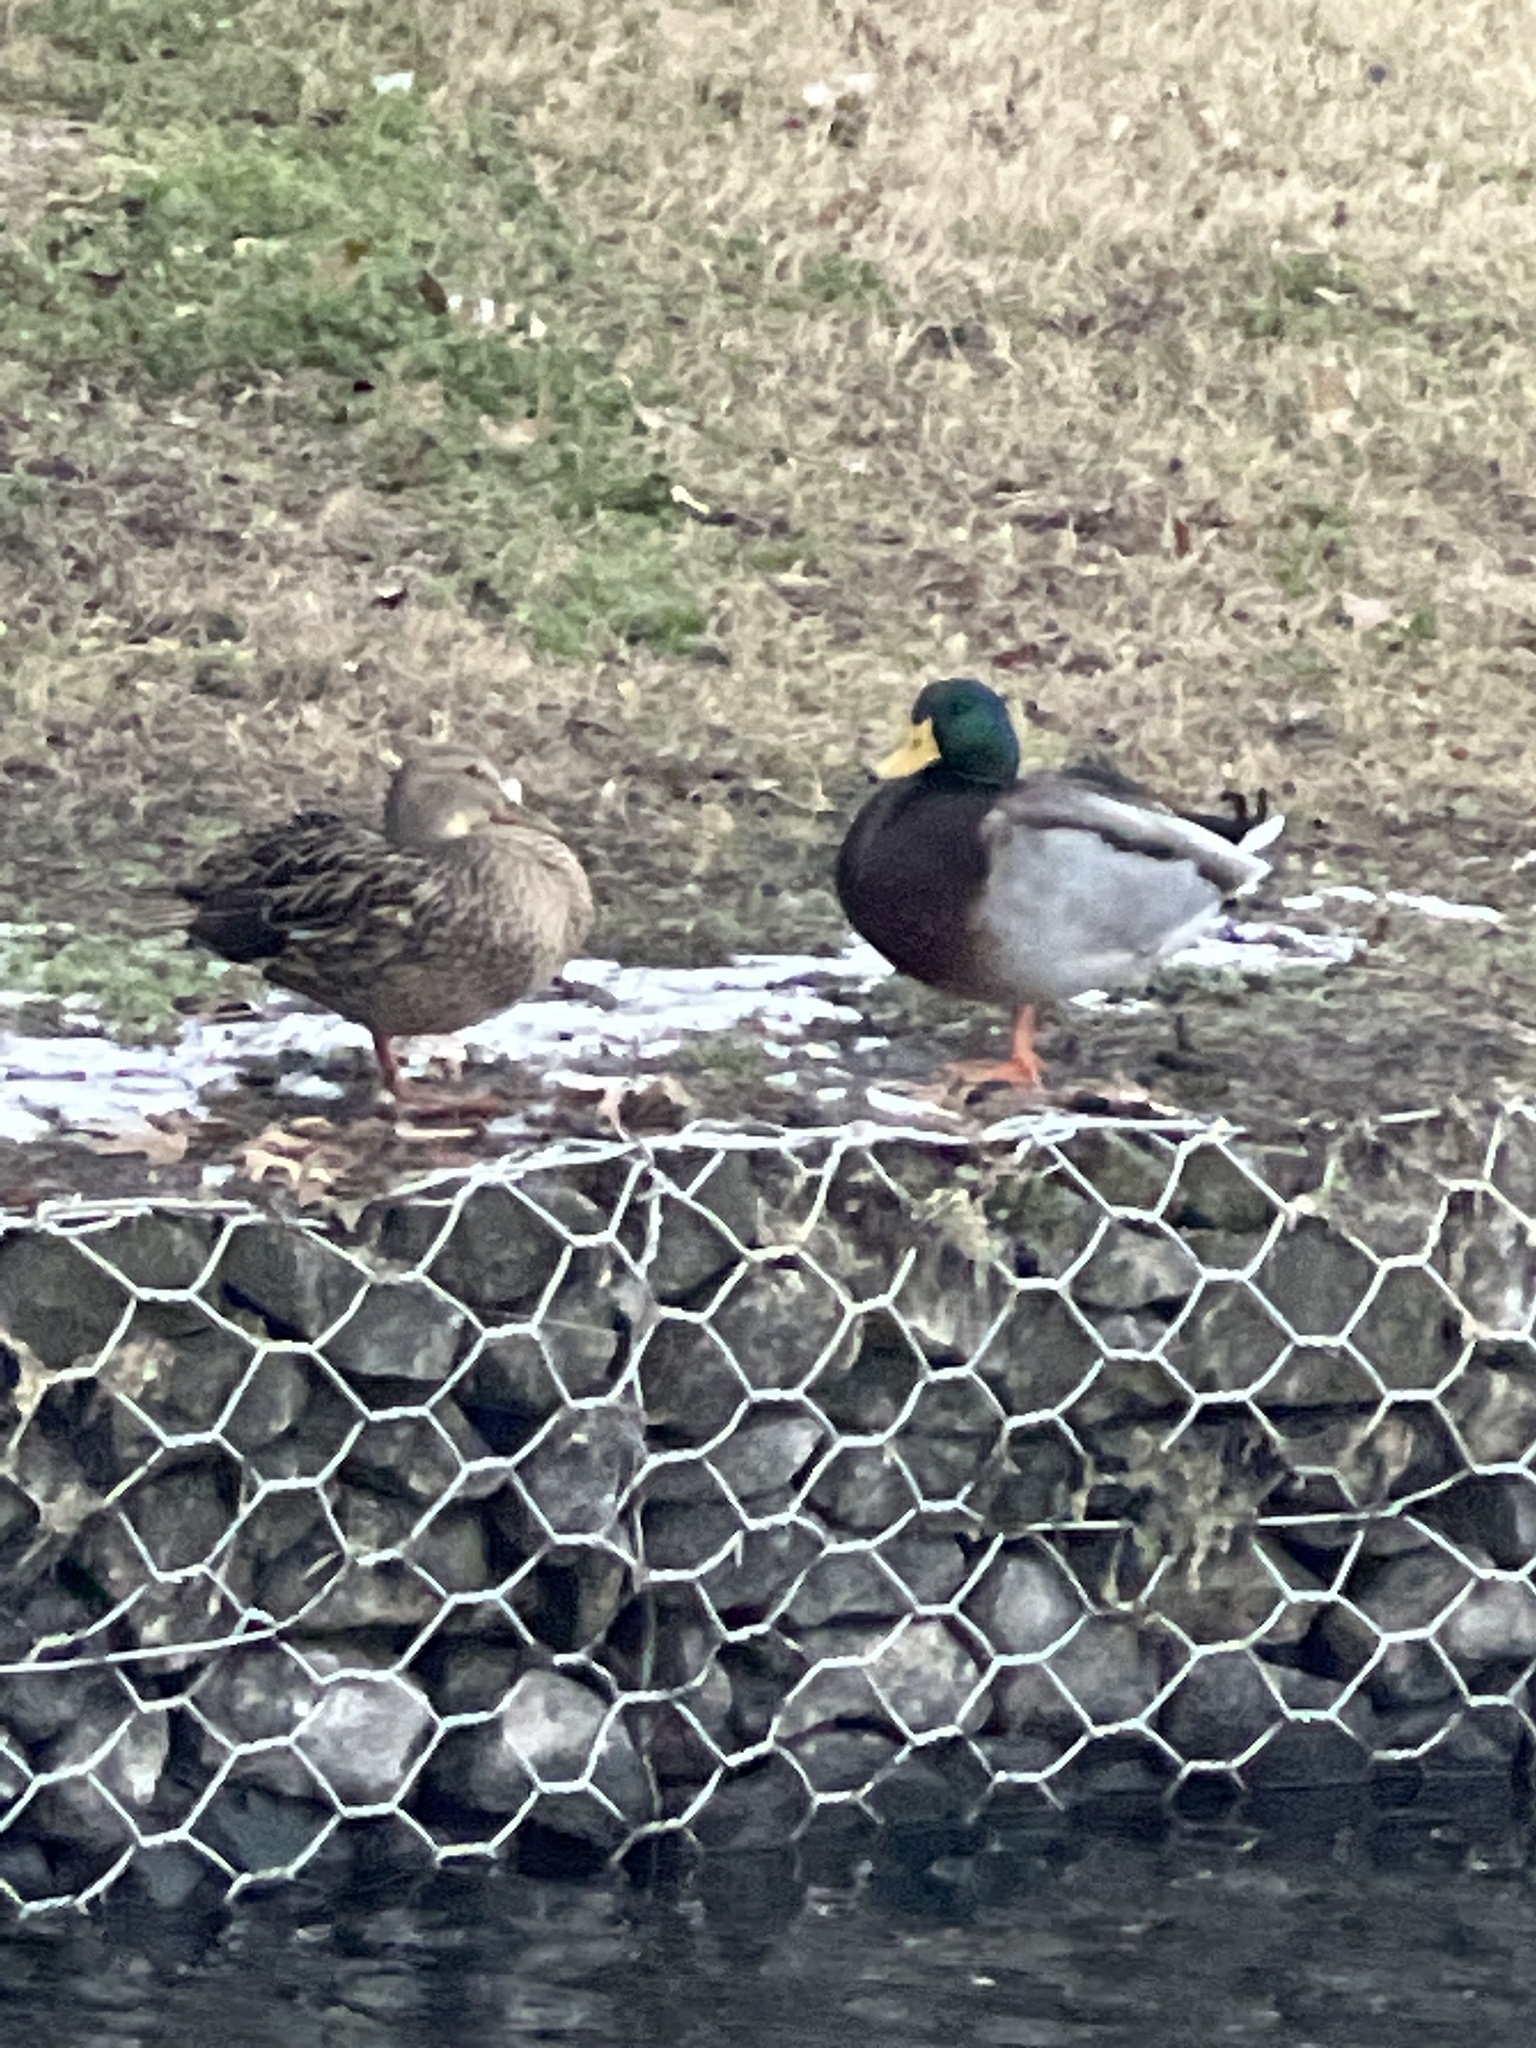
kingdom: Animalia
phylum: Chordata
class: Aves
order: Anseriformes
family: Anatidae
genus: Anas
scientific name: Anas platyrhynchos
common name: Mallard
